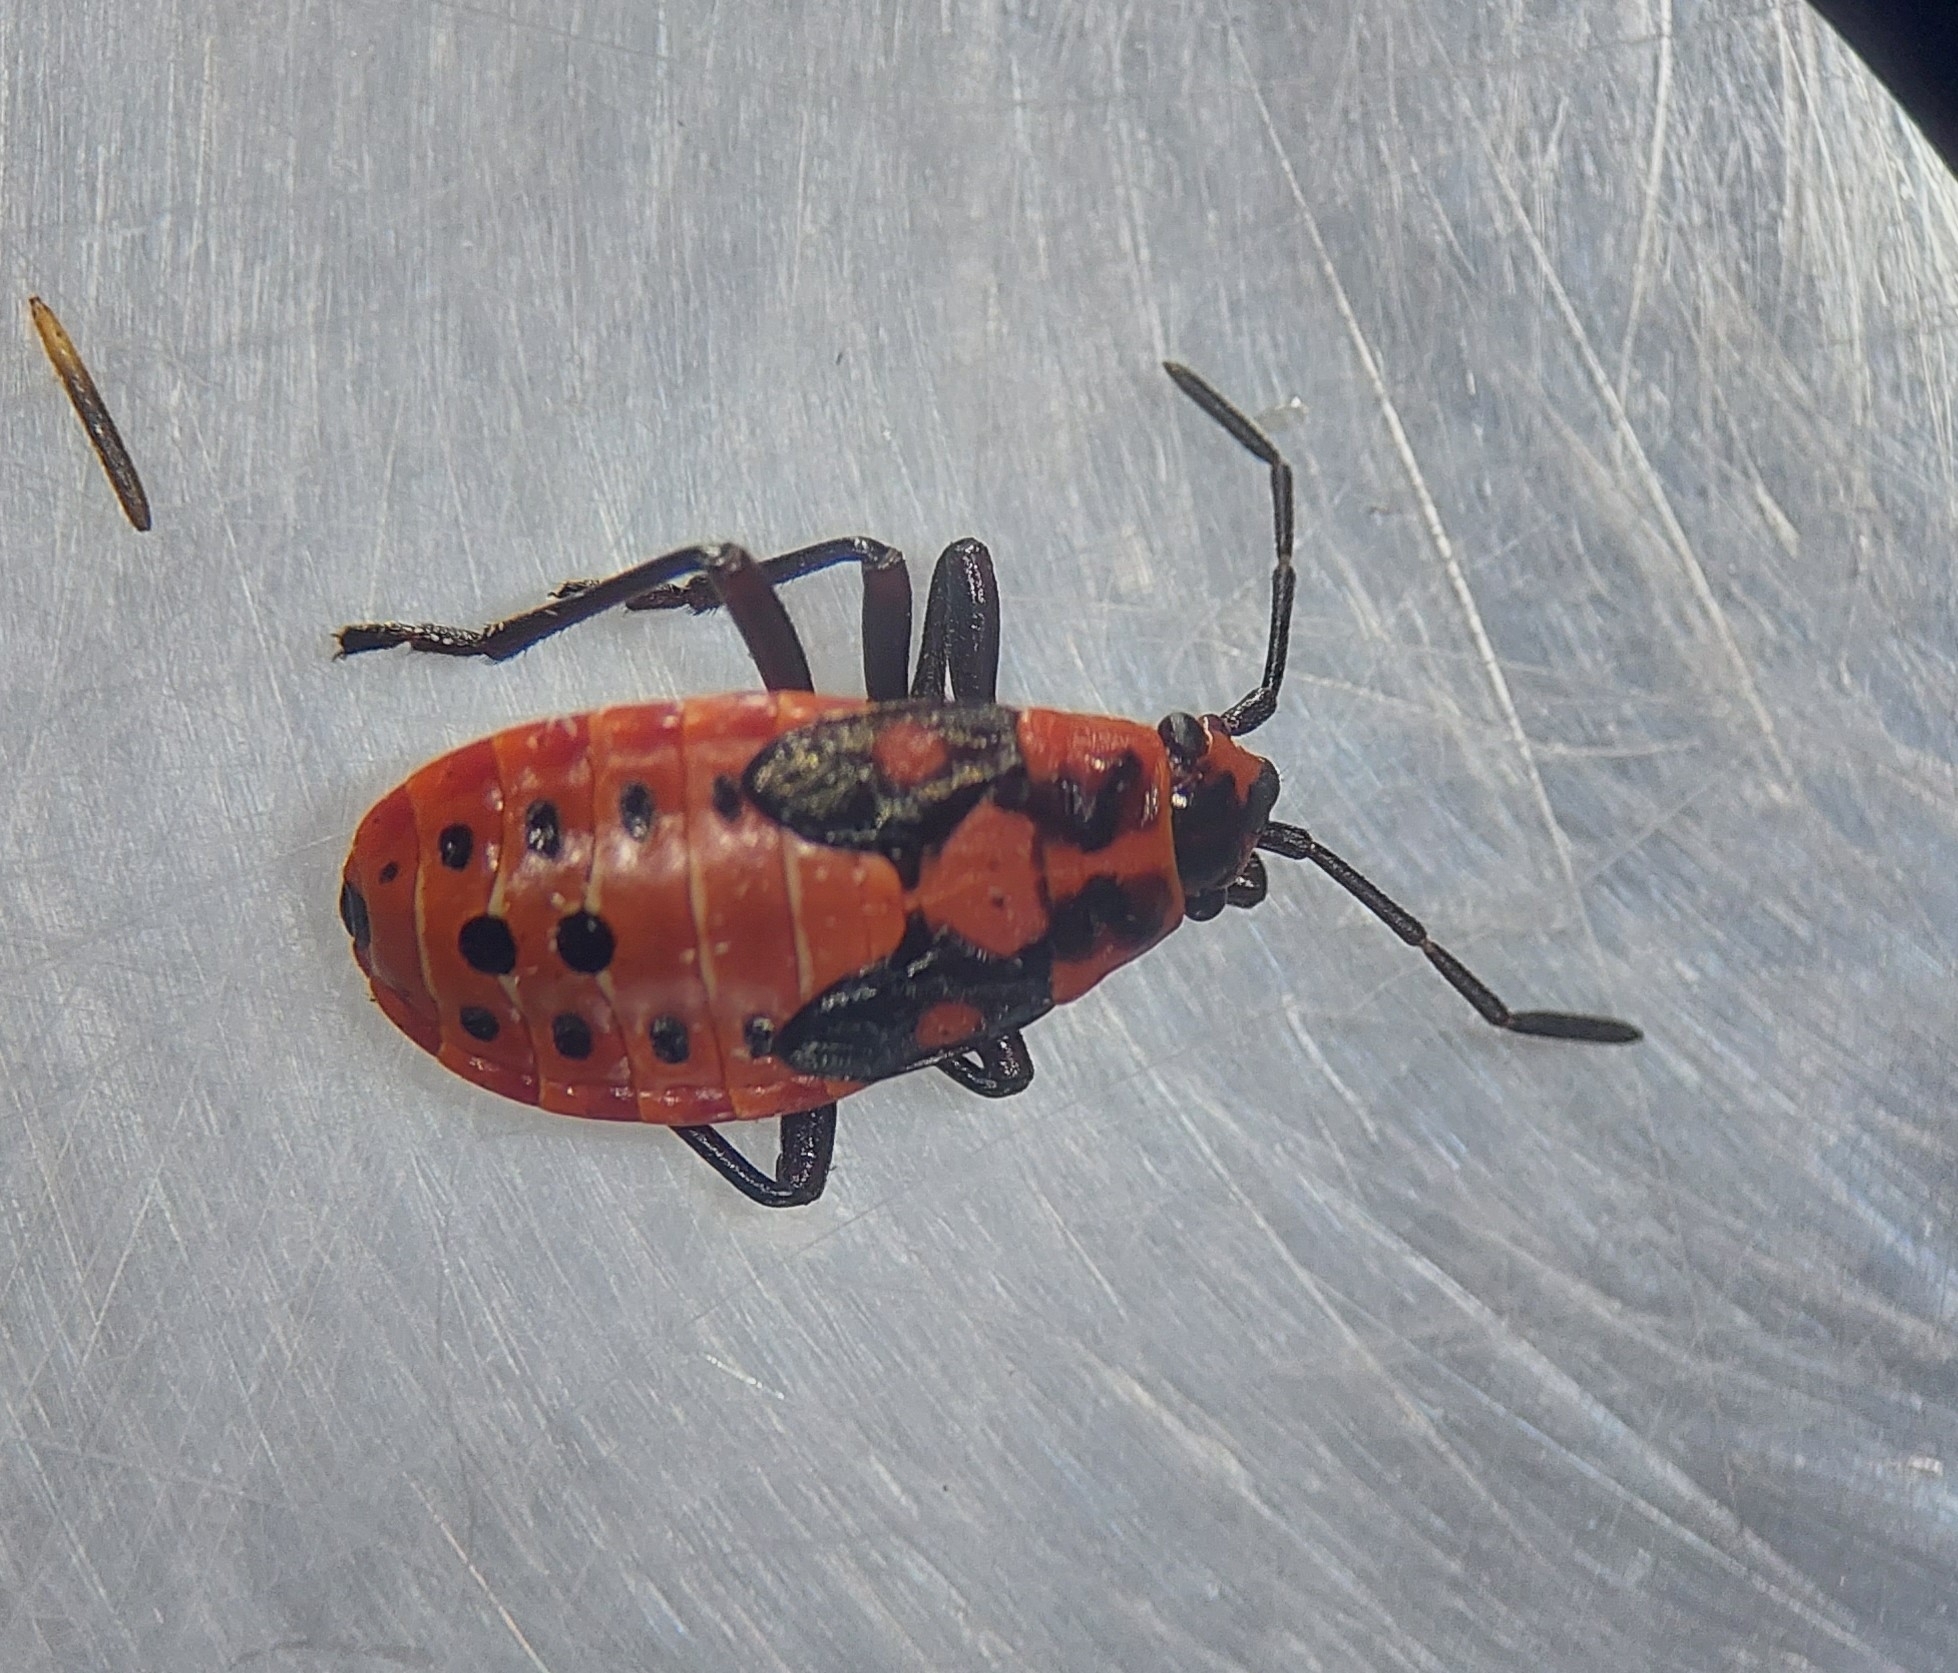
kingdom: Animalia
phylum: Arthropoda
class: Insecta
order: Hemiptera
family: Lygaeidae
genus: Spilostethus
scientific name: Spilostethus saxatilis
